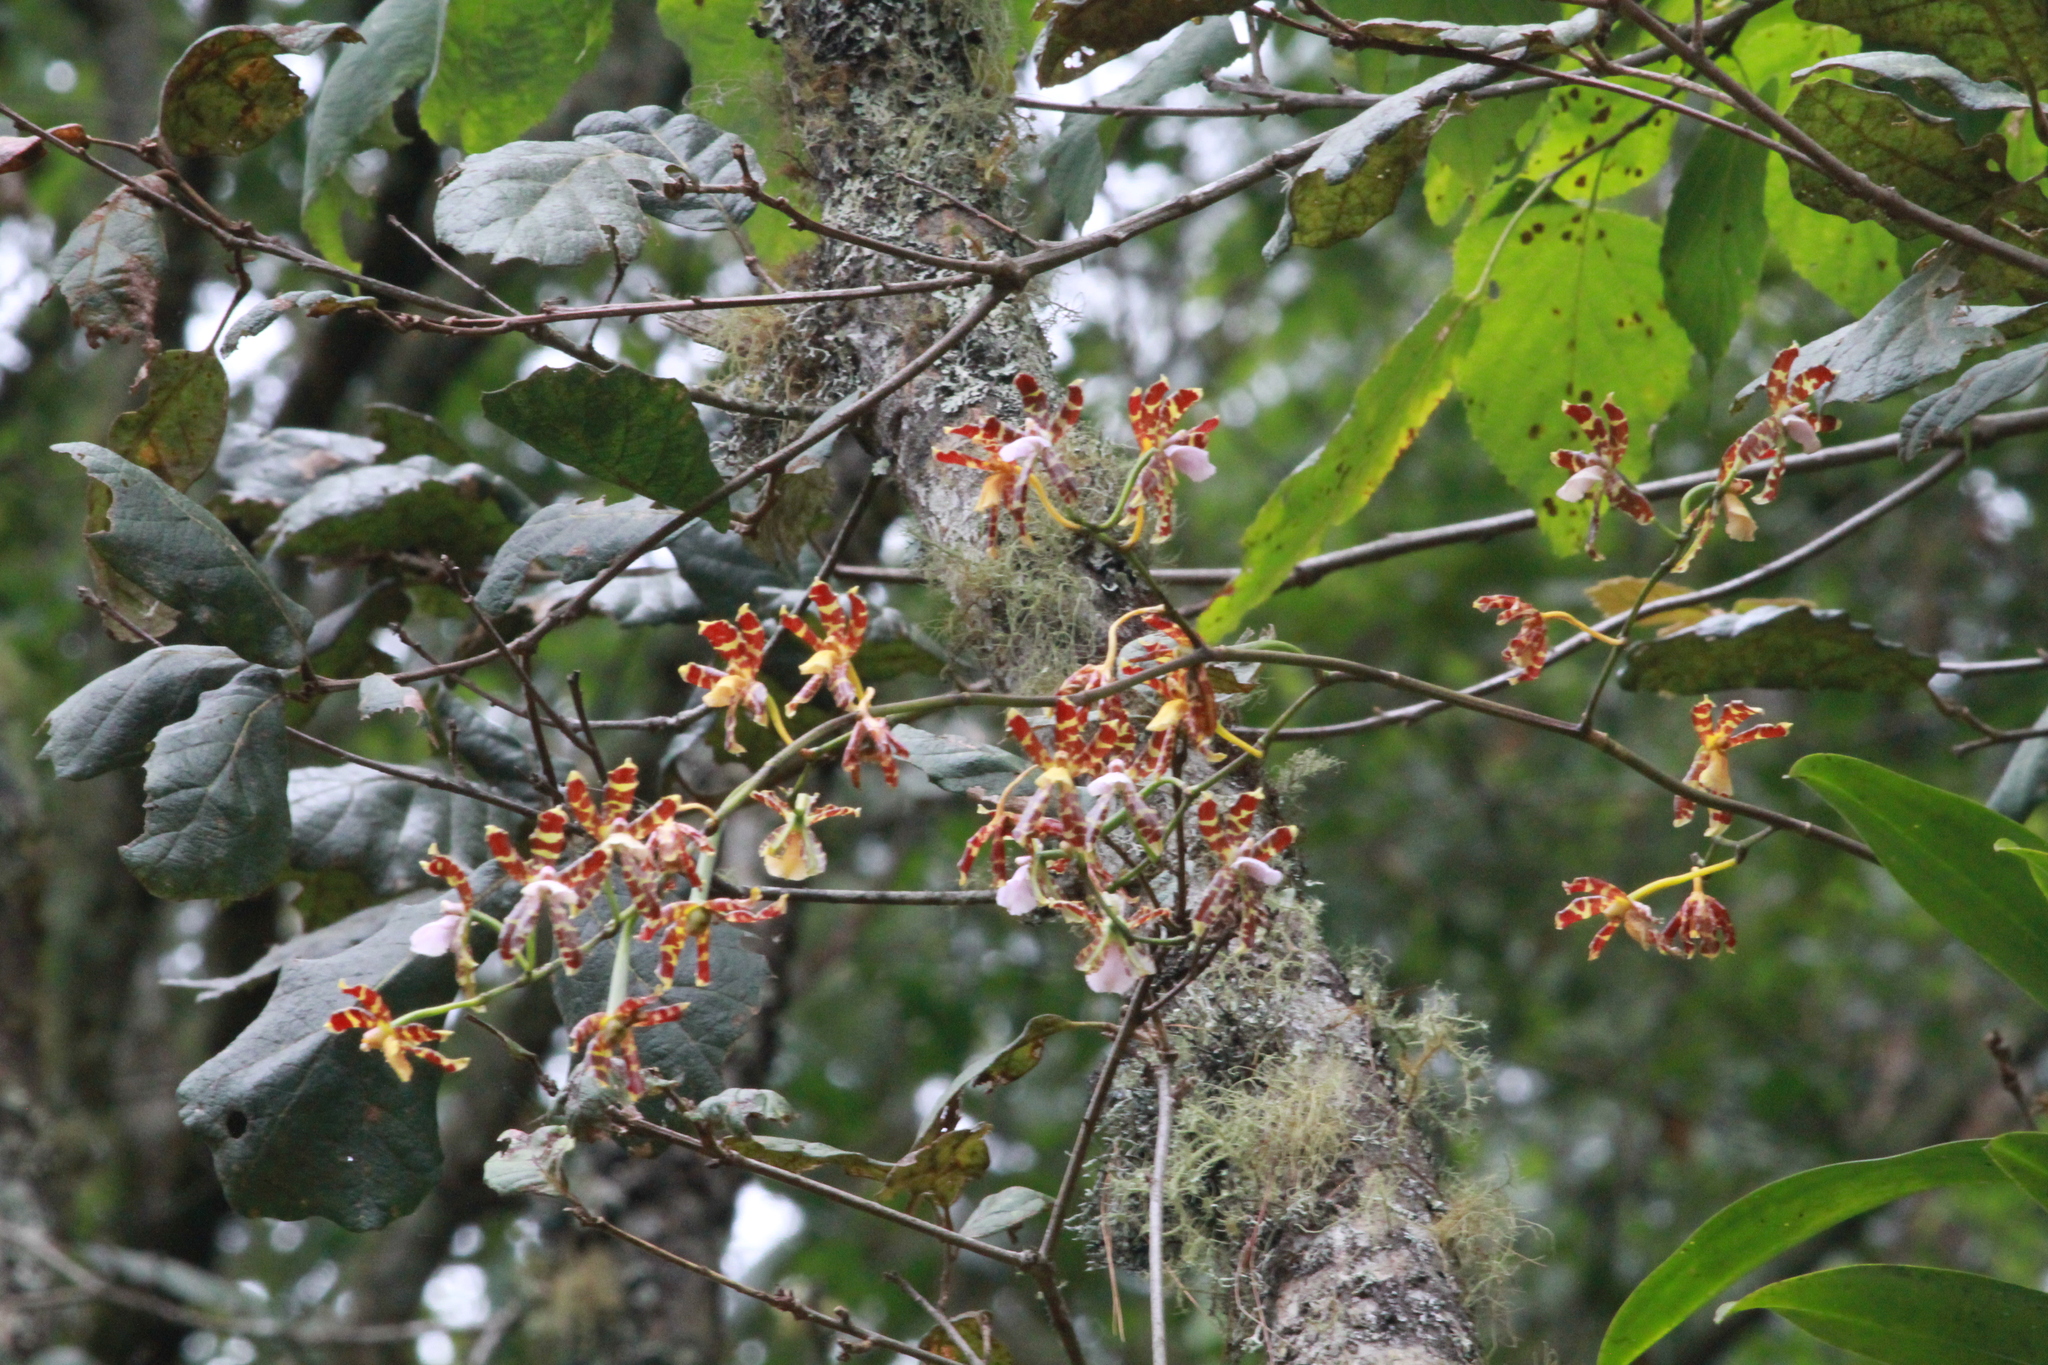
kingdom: Plantae
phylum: Tracheophyta
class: Liliopsida
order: Asparagales
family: Orchidaceae
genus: Oncidium
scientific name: Oncidium reichenheimii
